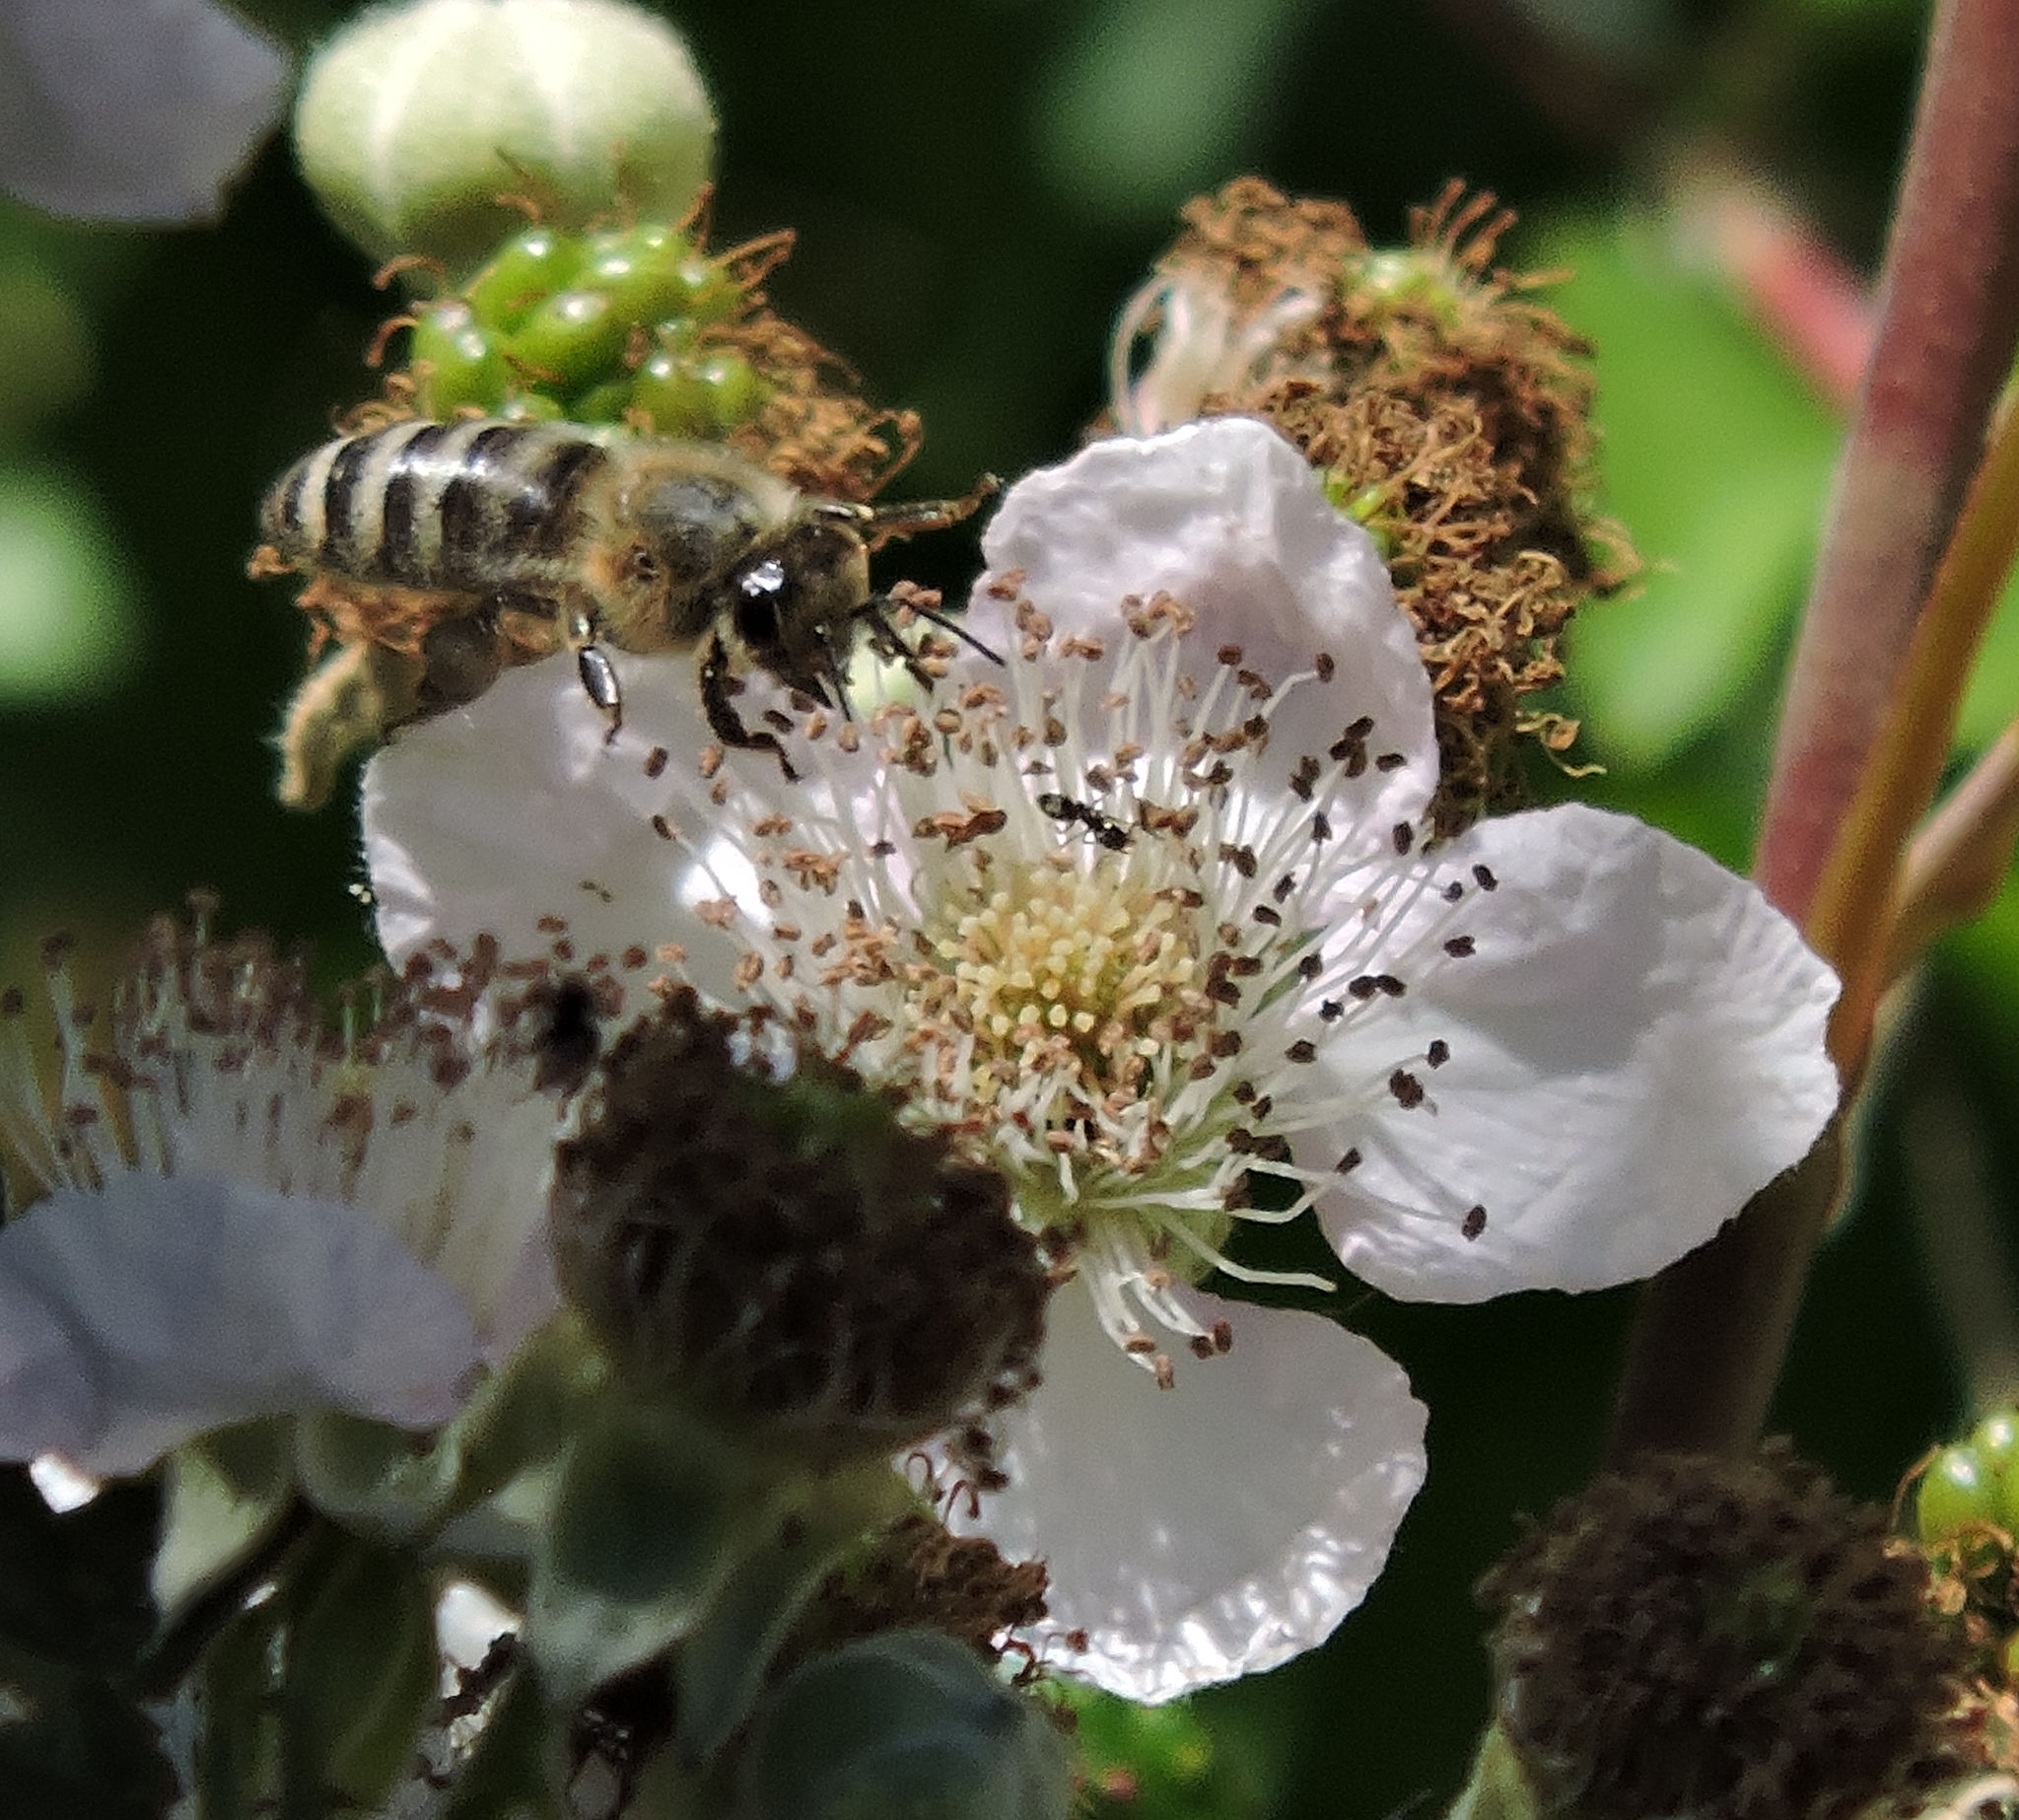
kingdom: Animalia
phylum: Arthropoda
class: Insecta
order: Hymenoptera
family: Apidae
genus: Apis
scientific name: Apis mellifera
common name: Honey bee
